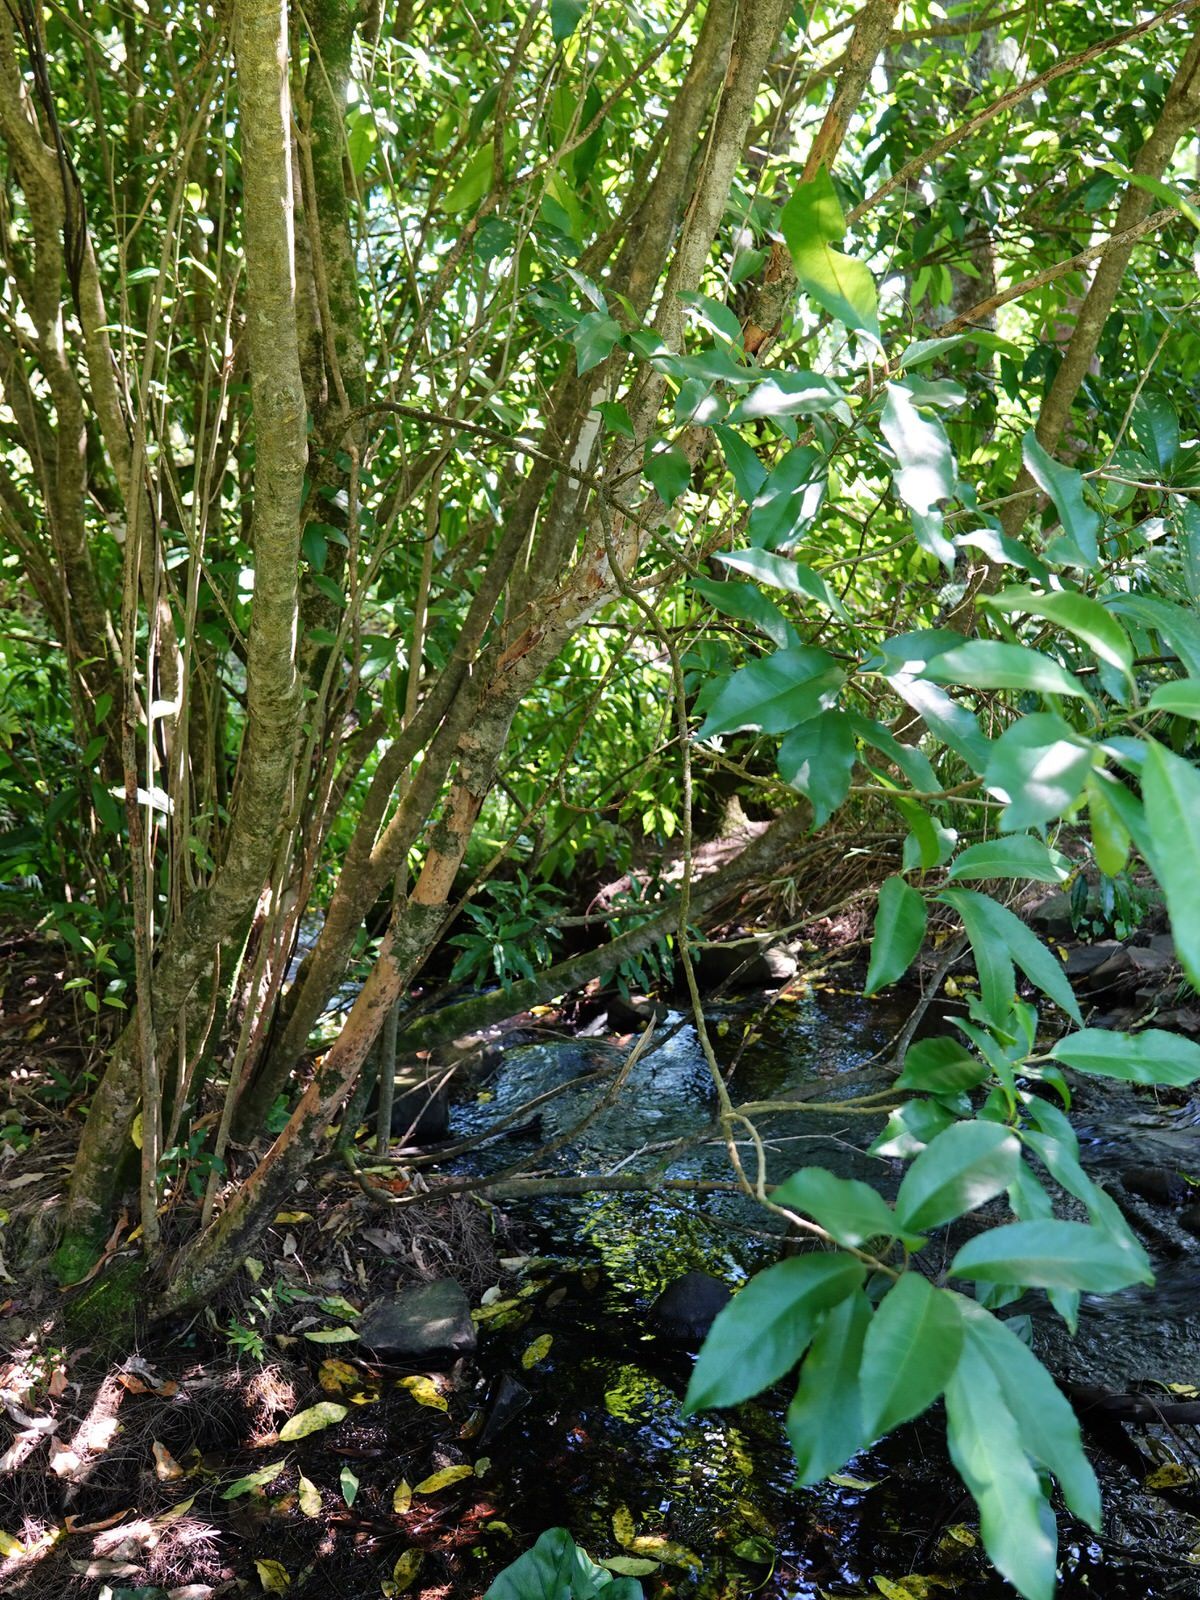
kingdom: Plantae
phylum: Tracheophyta
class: Magnoliopsida
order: Malpighiales
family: Violaceae
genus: Melicytus
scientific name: Melicytus ramiflorus
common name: Mahoe
